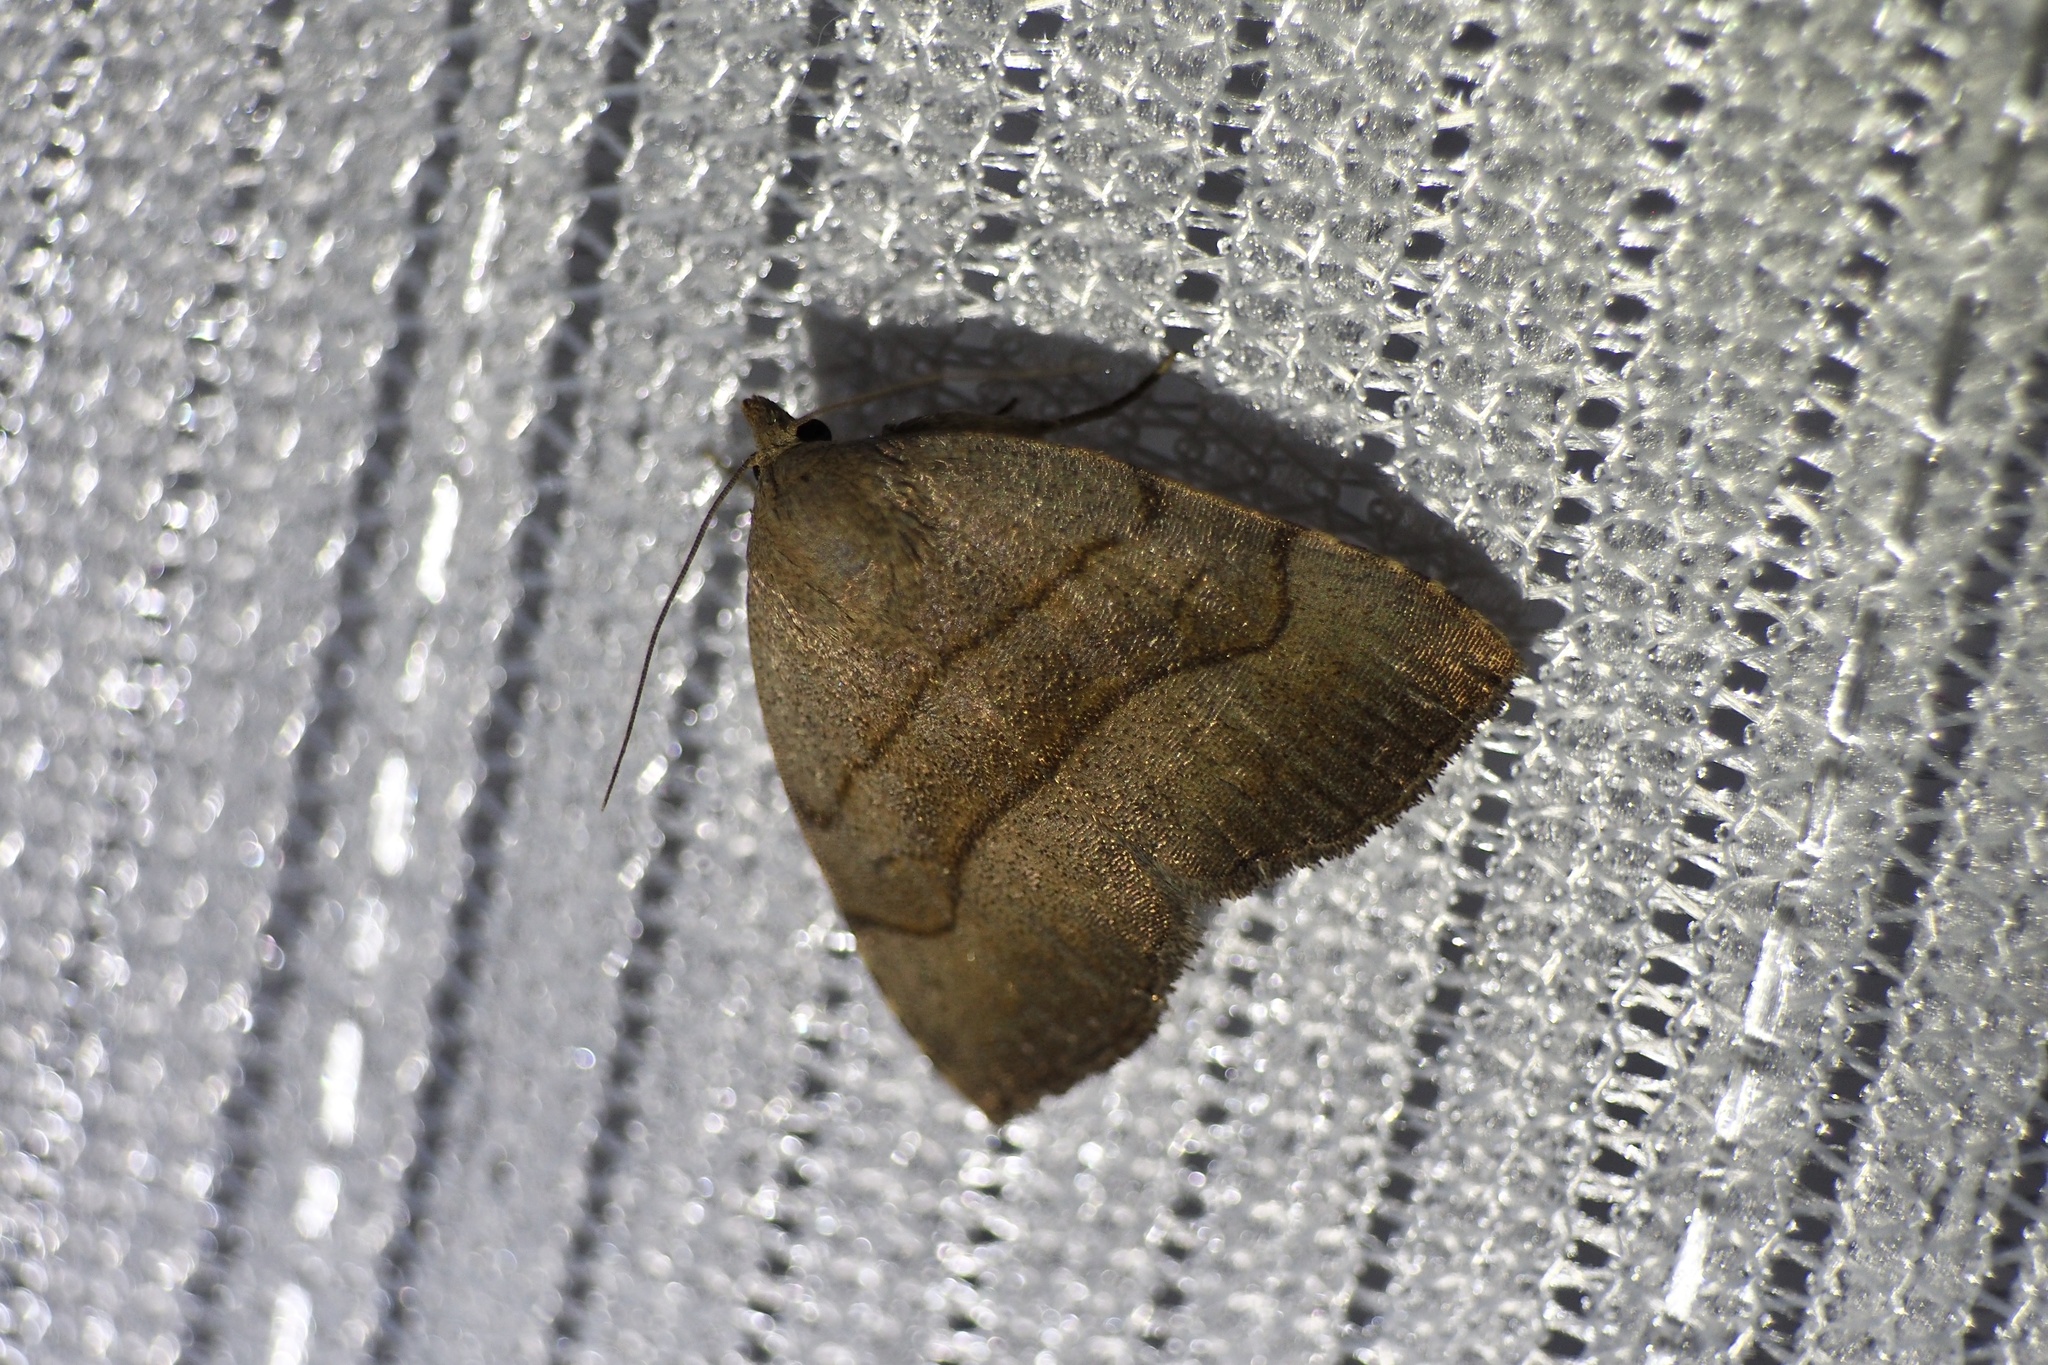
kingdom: Animalia
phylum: Arthropoda
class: Insecta
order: Lepidoptera
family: Erebidae
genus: Leiostola
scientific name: Leiostola mollis
